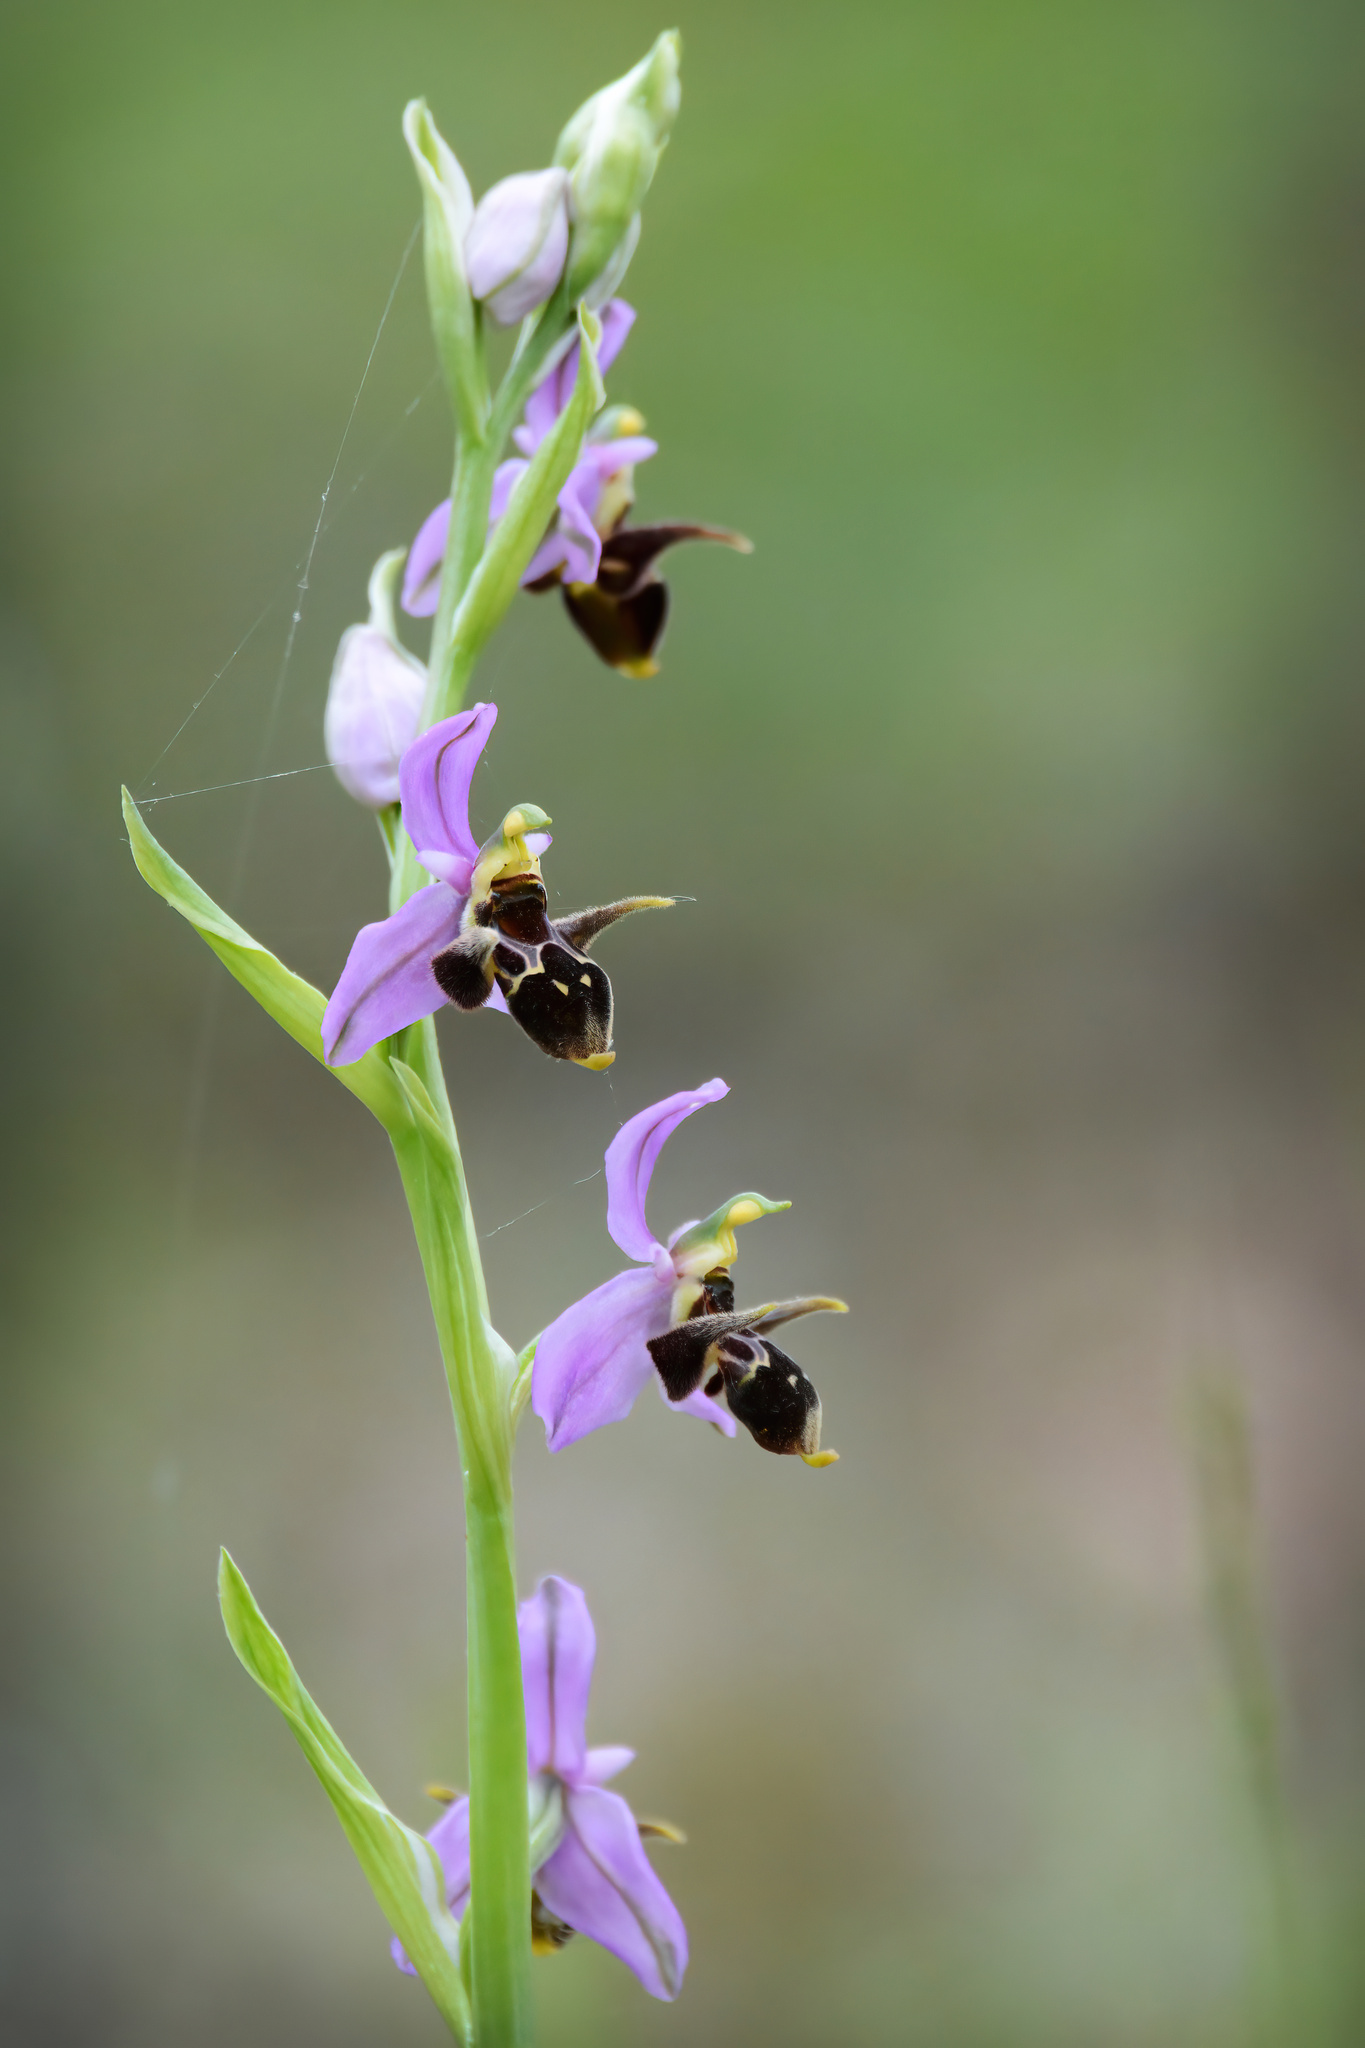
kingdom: Plantae
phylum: Tracheophyta
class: Liliopsida
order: Asparagales
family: Orchidaceae
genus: Ophrys
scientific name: Ophrys
